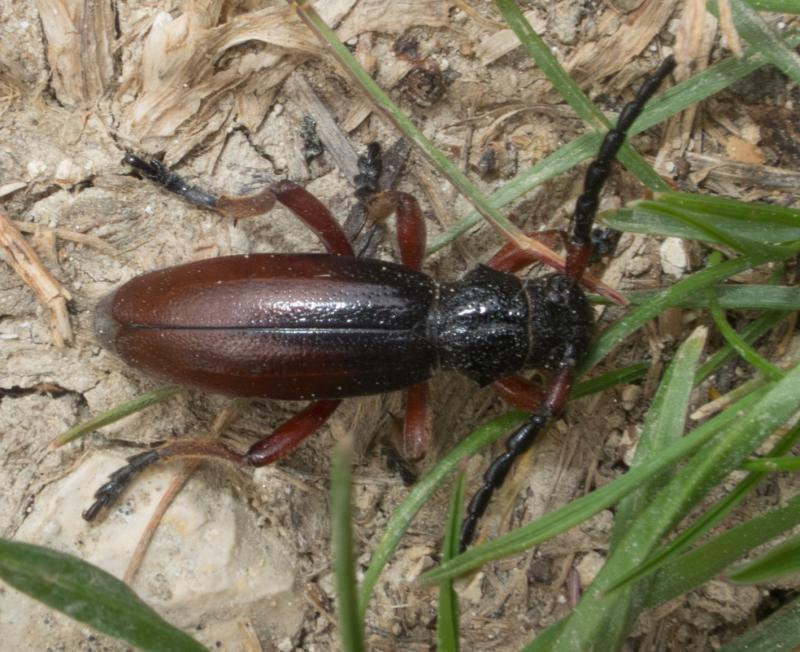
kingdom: Animalia
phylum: Arthropoda
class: Insecta
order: Coleoptera
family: Cerambycidae
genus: Dorcadion
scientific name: Dorcadion fulvum
